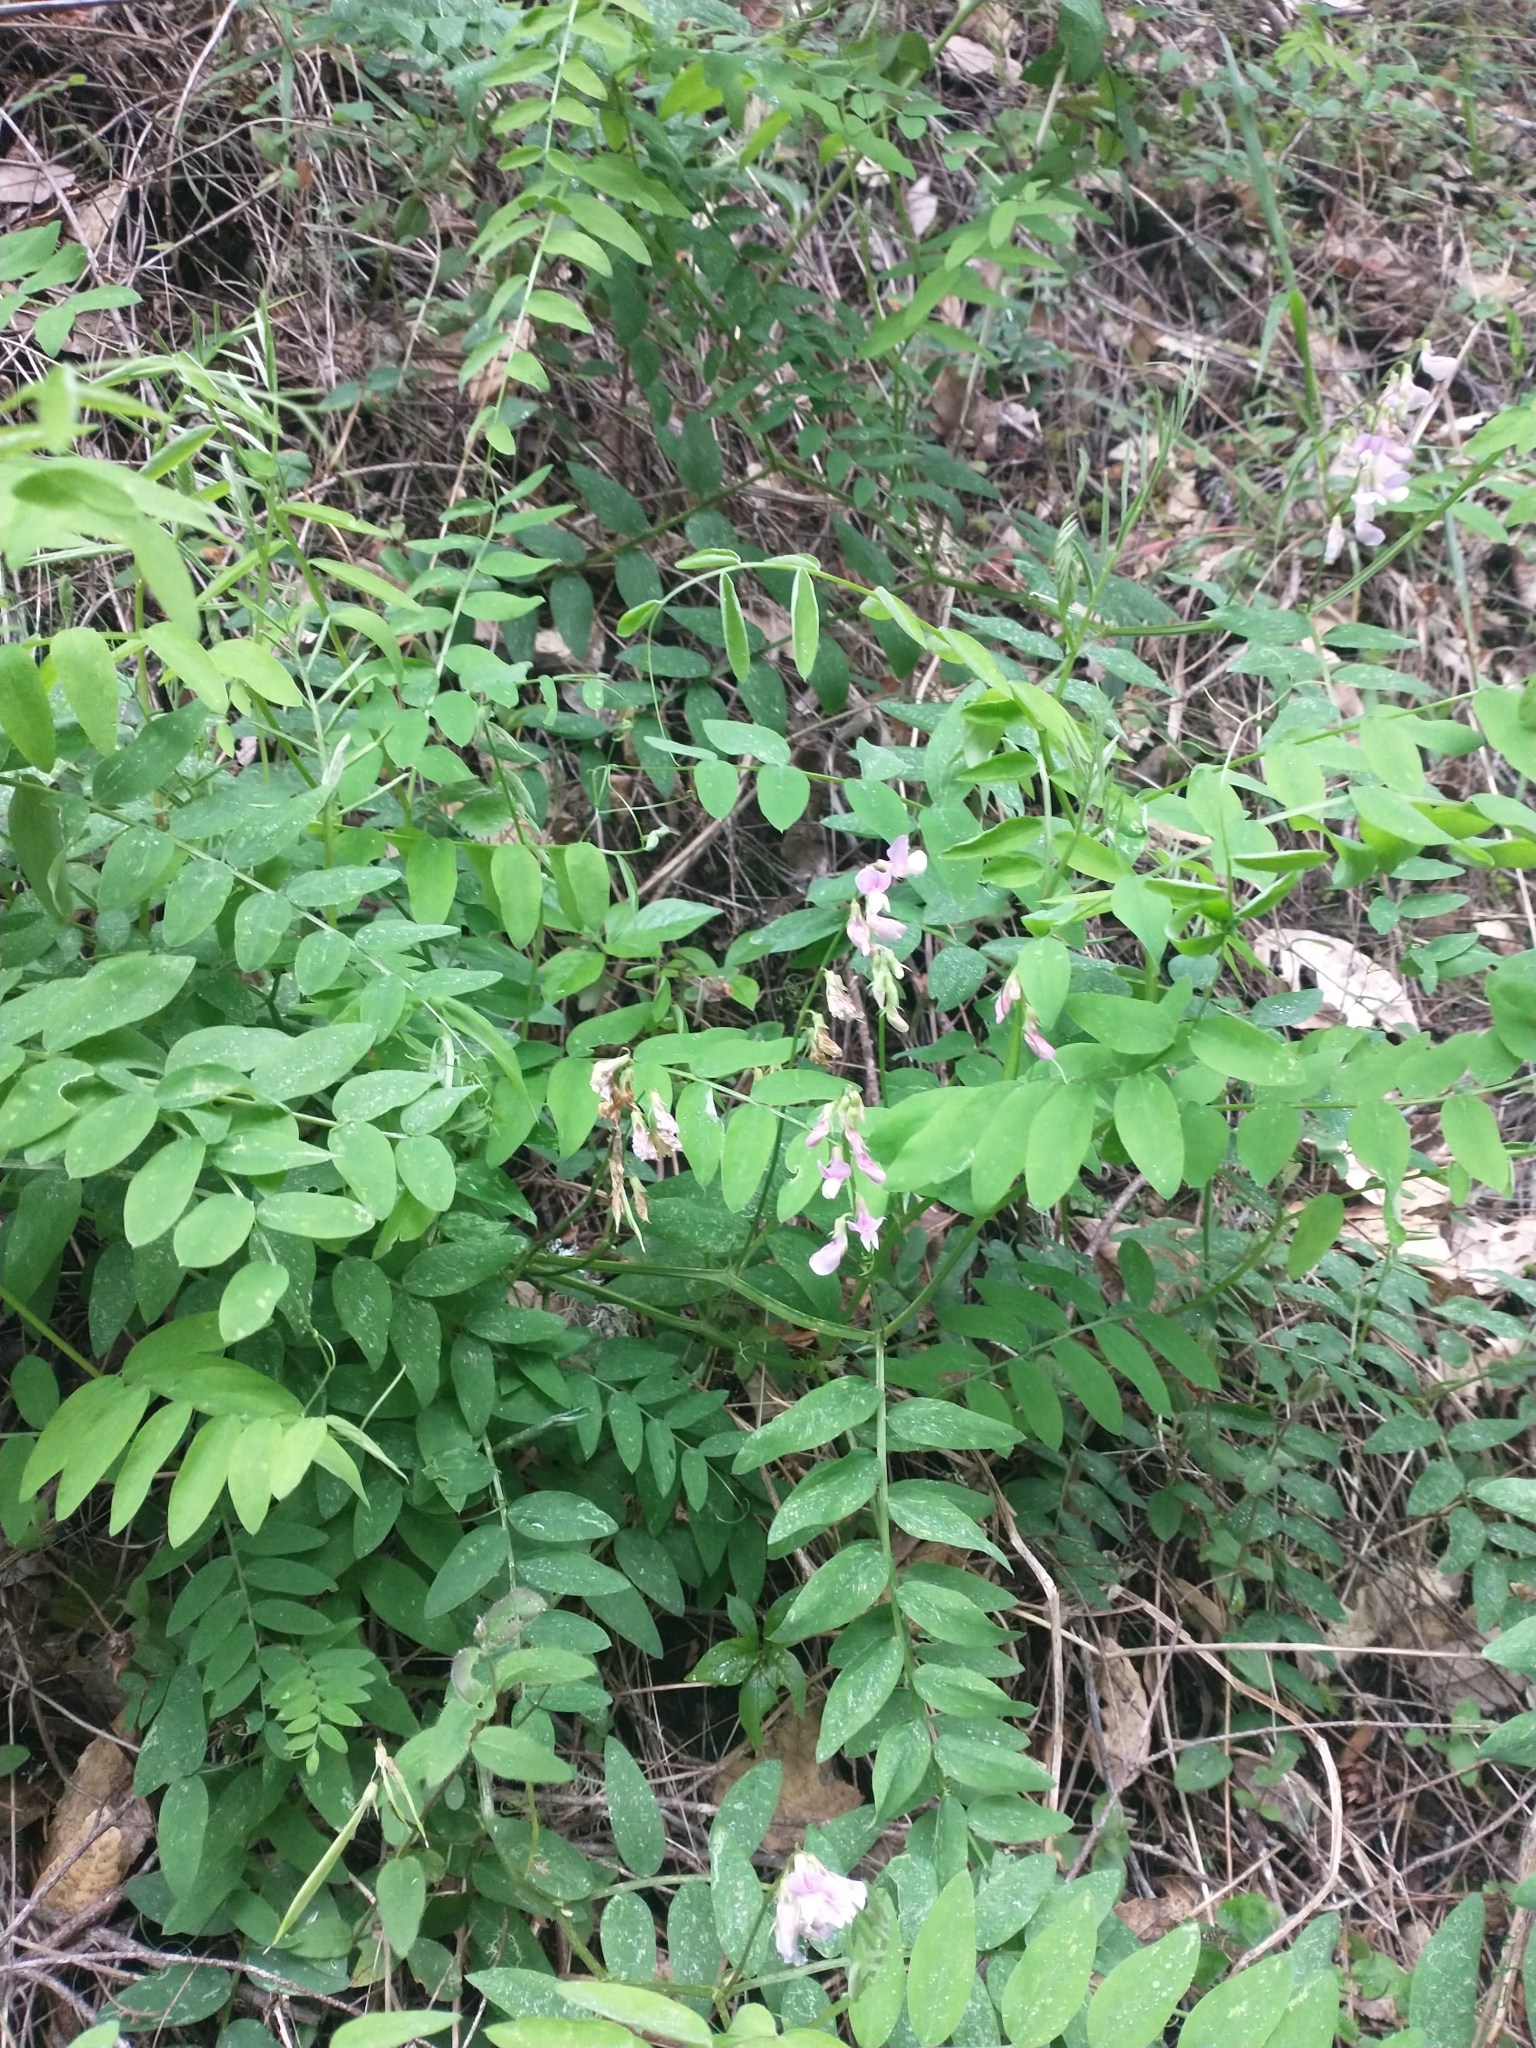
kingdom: Plantae
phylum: Tracheophyta
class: Magnoliopsida
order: Fabales
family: Fabaceae
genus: Lathyrus
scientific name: Lathyrus vestitus
